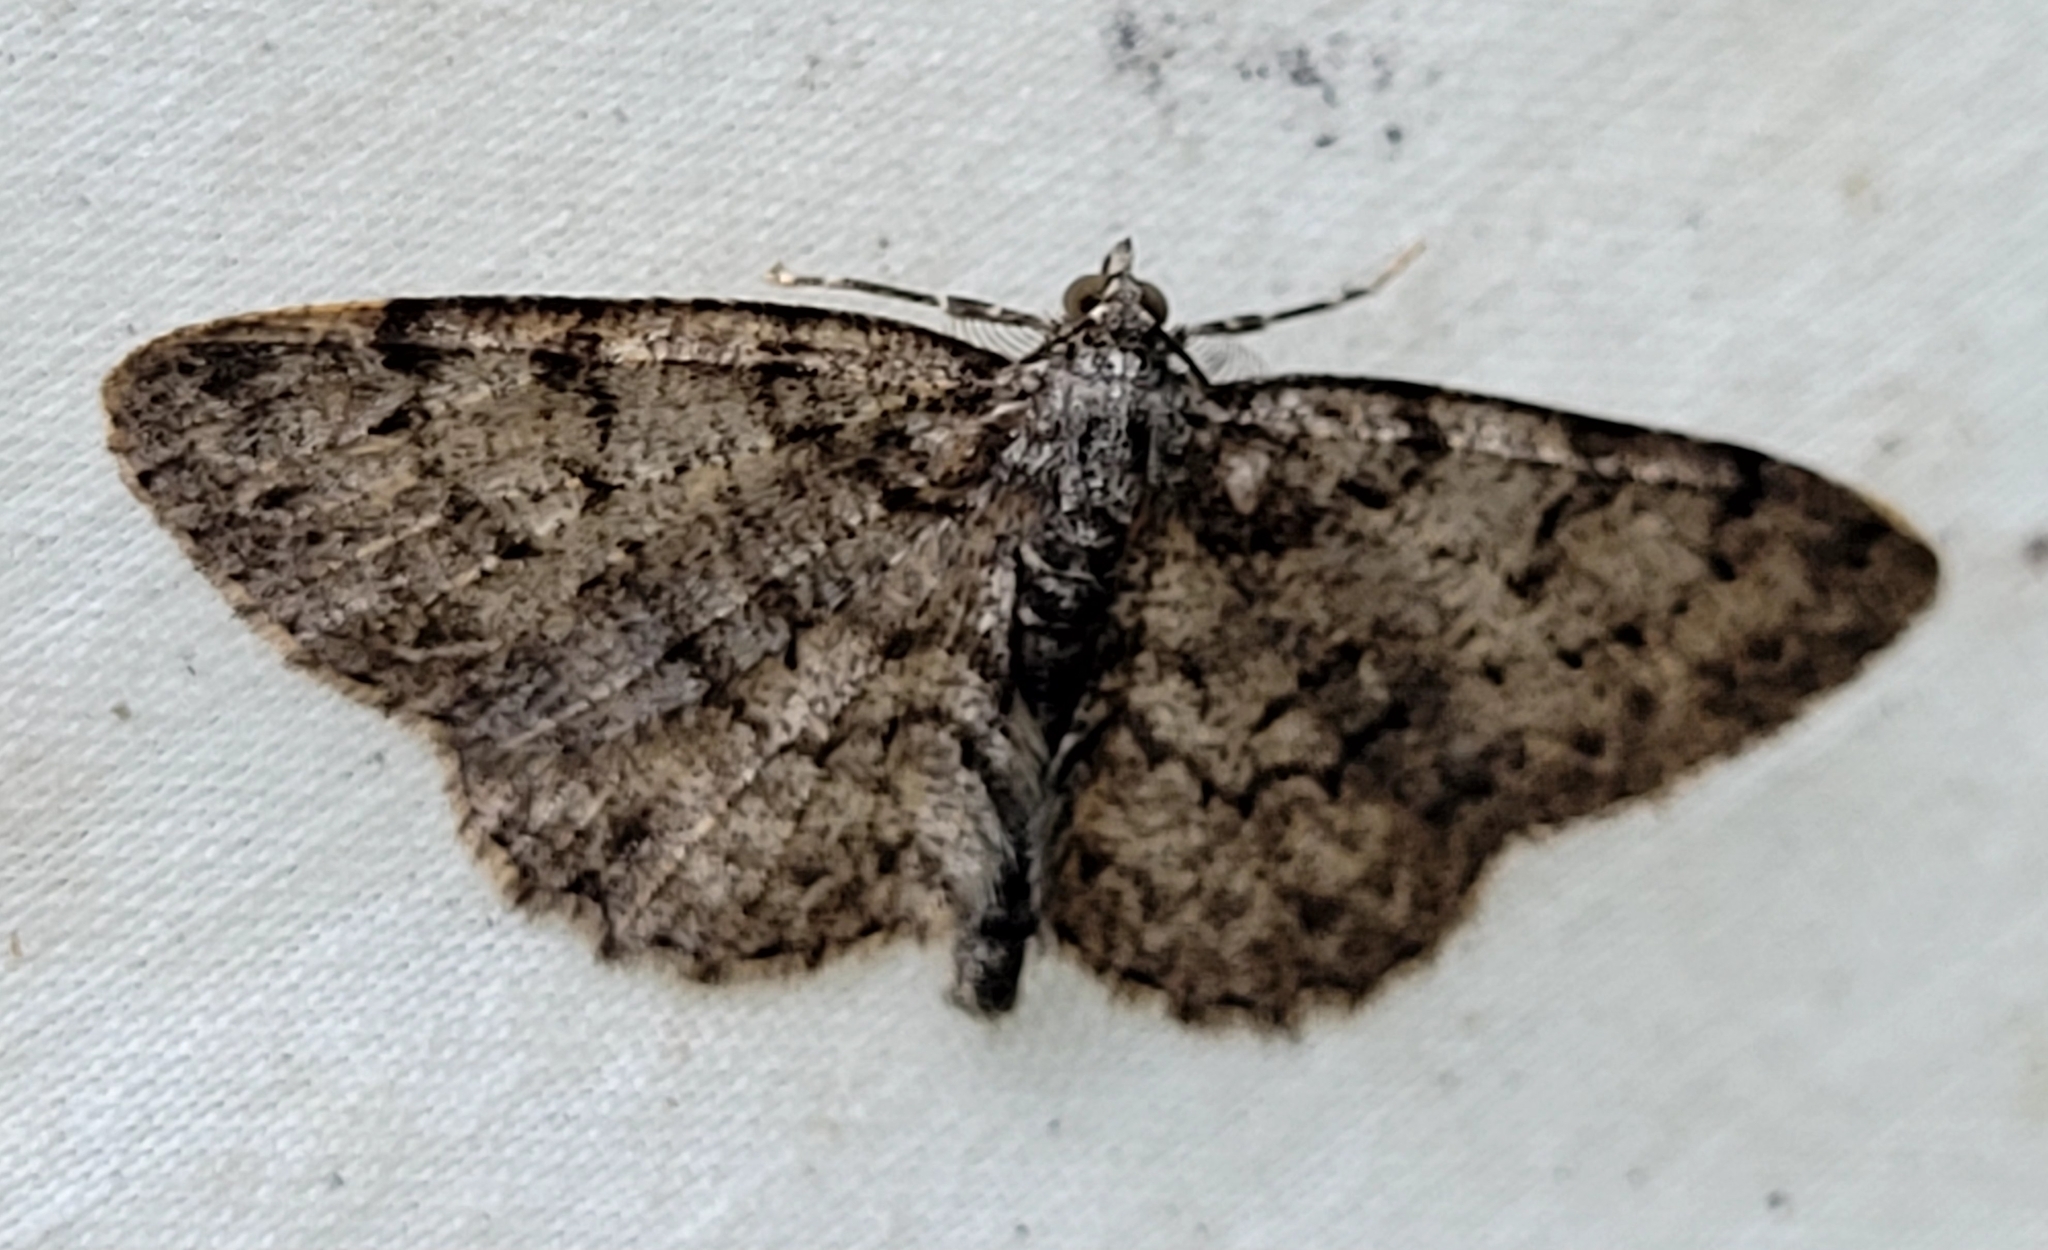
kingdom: Animalia
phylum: Arthropoda
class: Insecta
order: Lepidoptera
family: Geometridae
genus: Protoboarmia
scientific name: Protoboarmia porcelaria
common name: Porcelain gray
